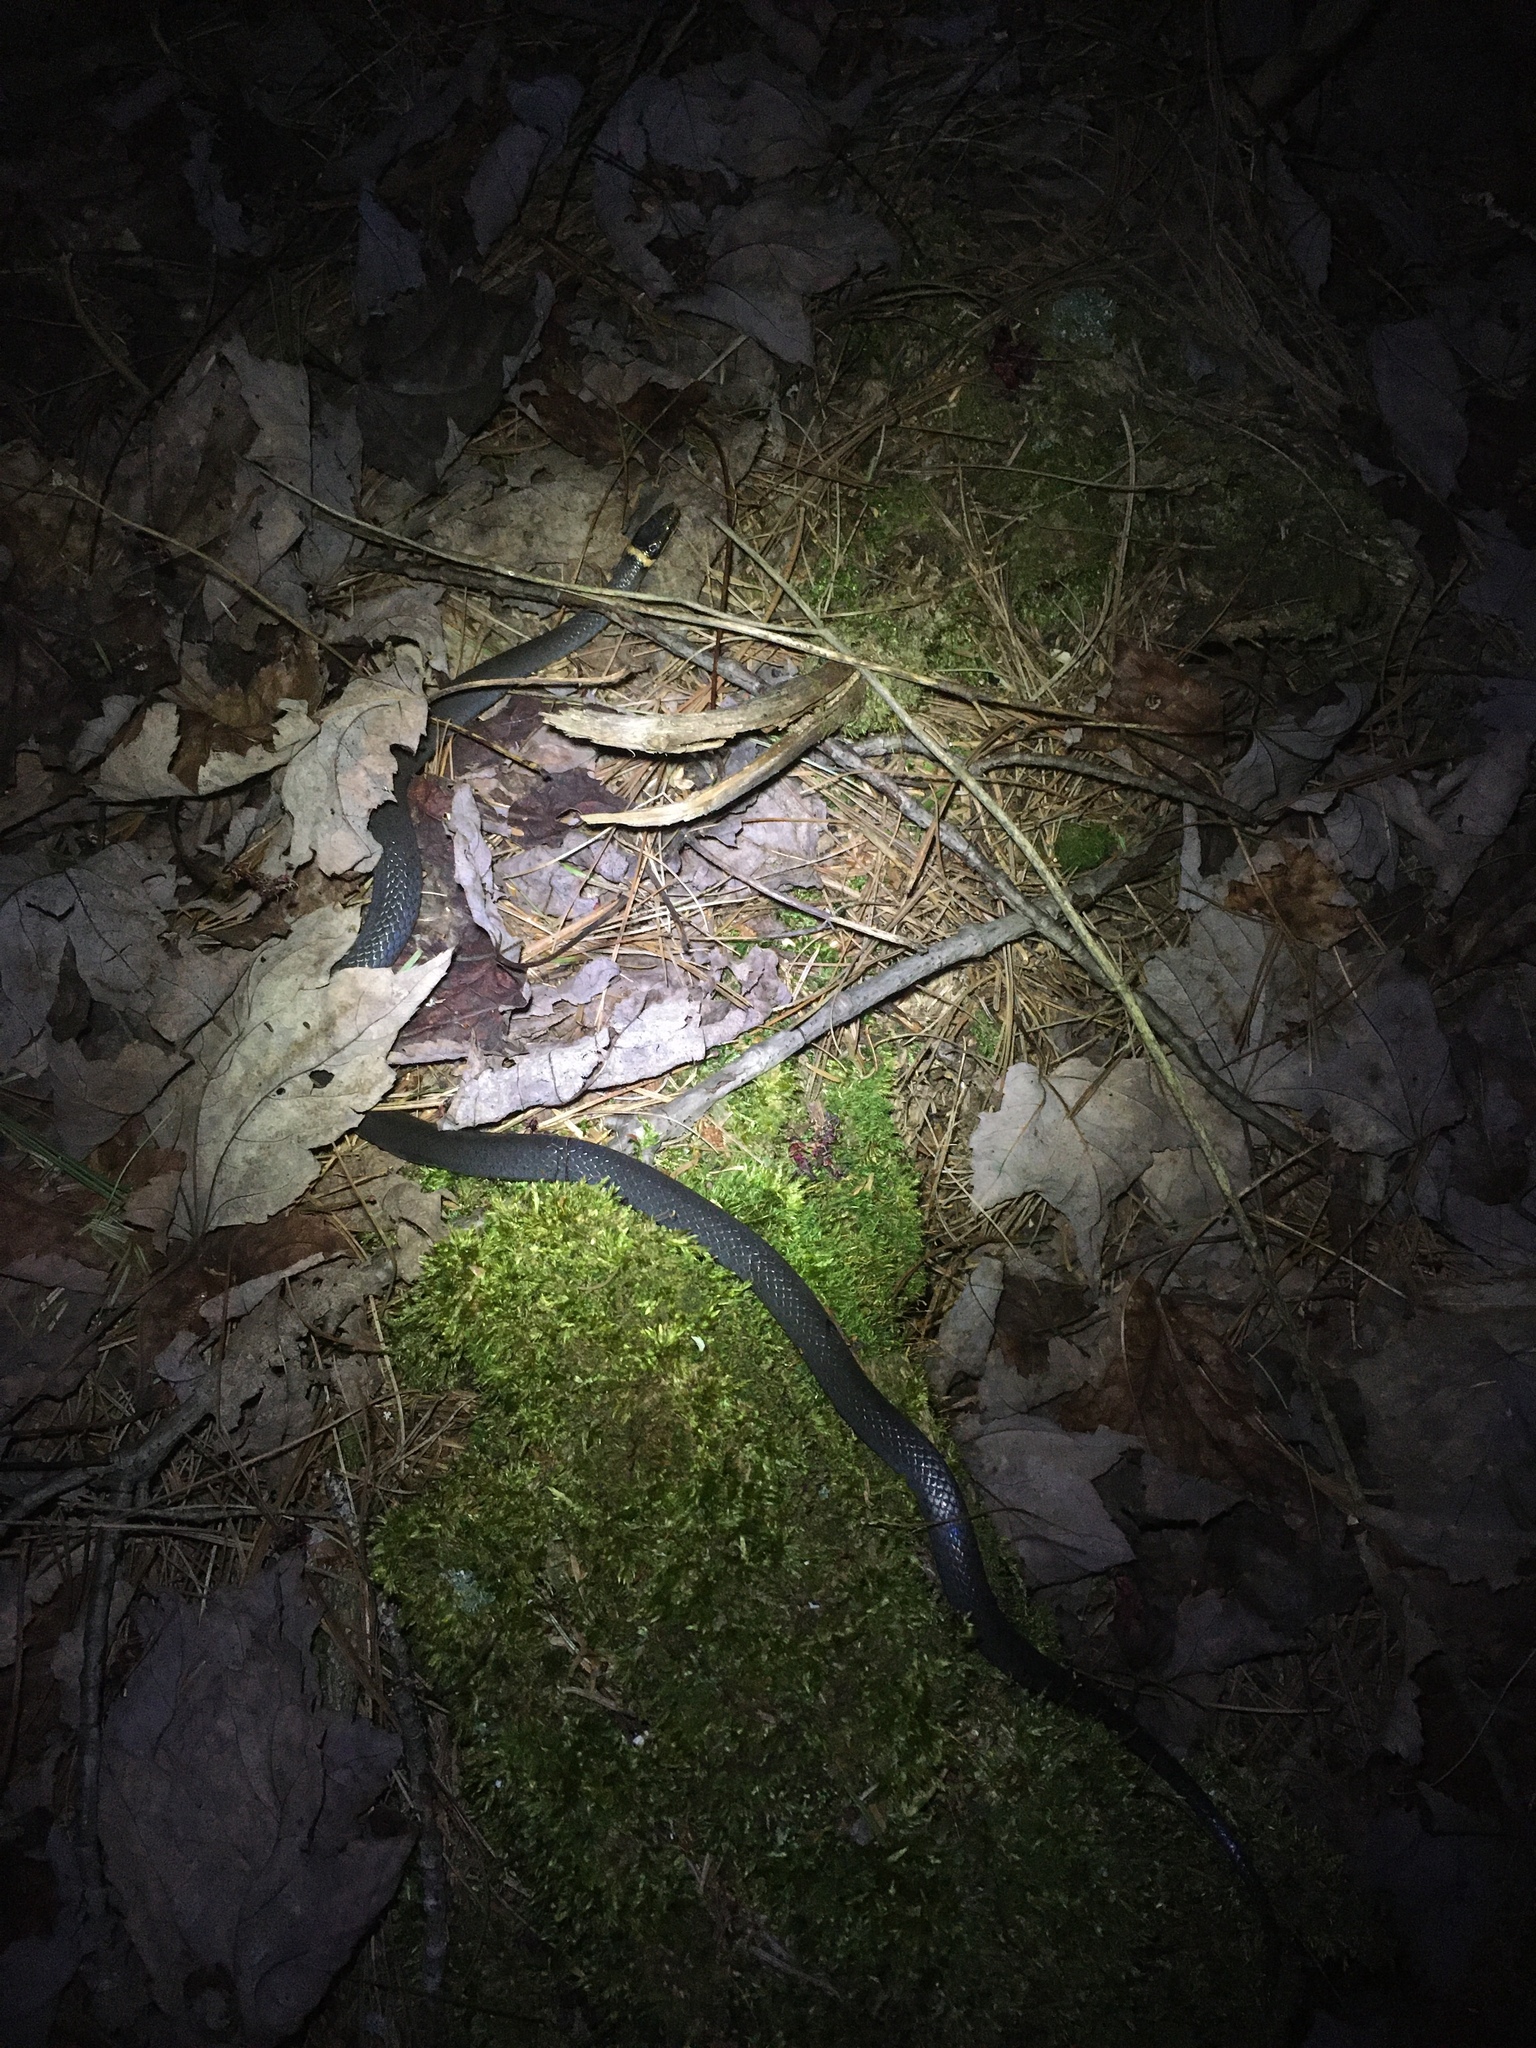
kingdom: Animalia
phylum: Chordata
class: Squamata
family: Colubridae
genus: Diadophis
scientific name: Diadophis punctatus
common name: Ringneck snake
